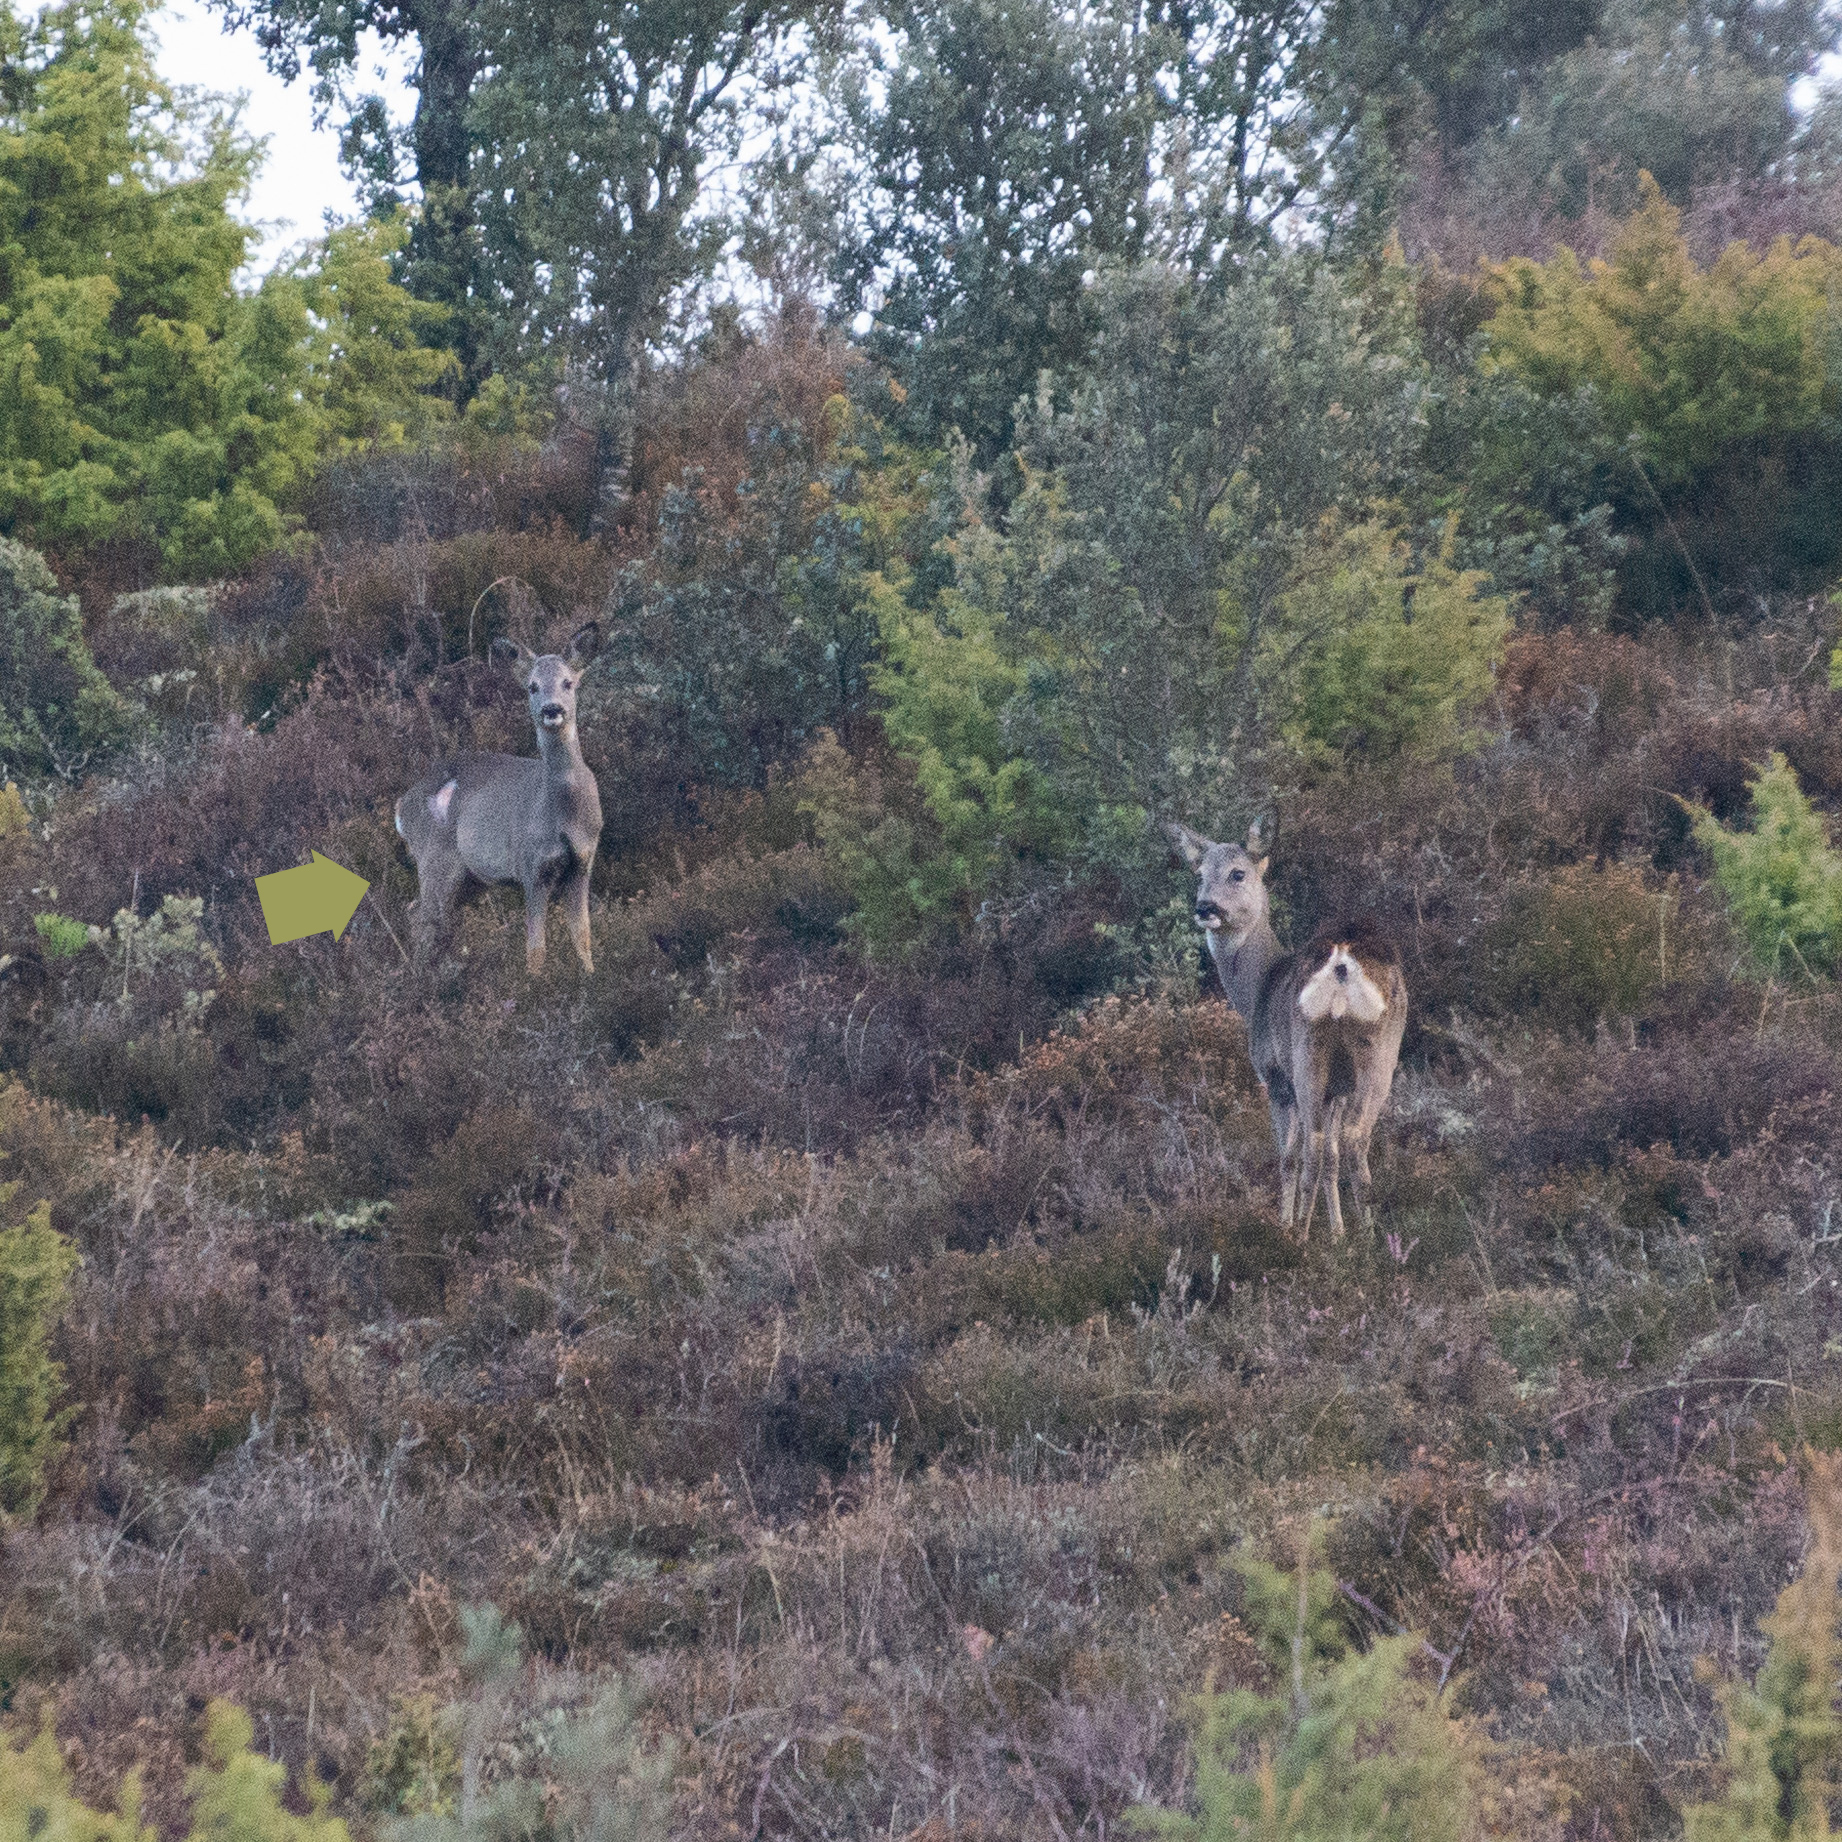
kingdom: Animalia
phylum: Chordata
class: Mammalia
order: Artiodactyla
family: Cervidae
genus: Capreolus
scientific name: Capreolus capreolus
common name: Western roe deer
